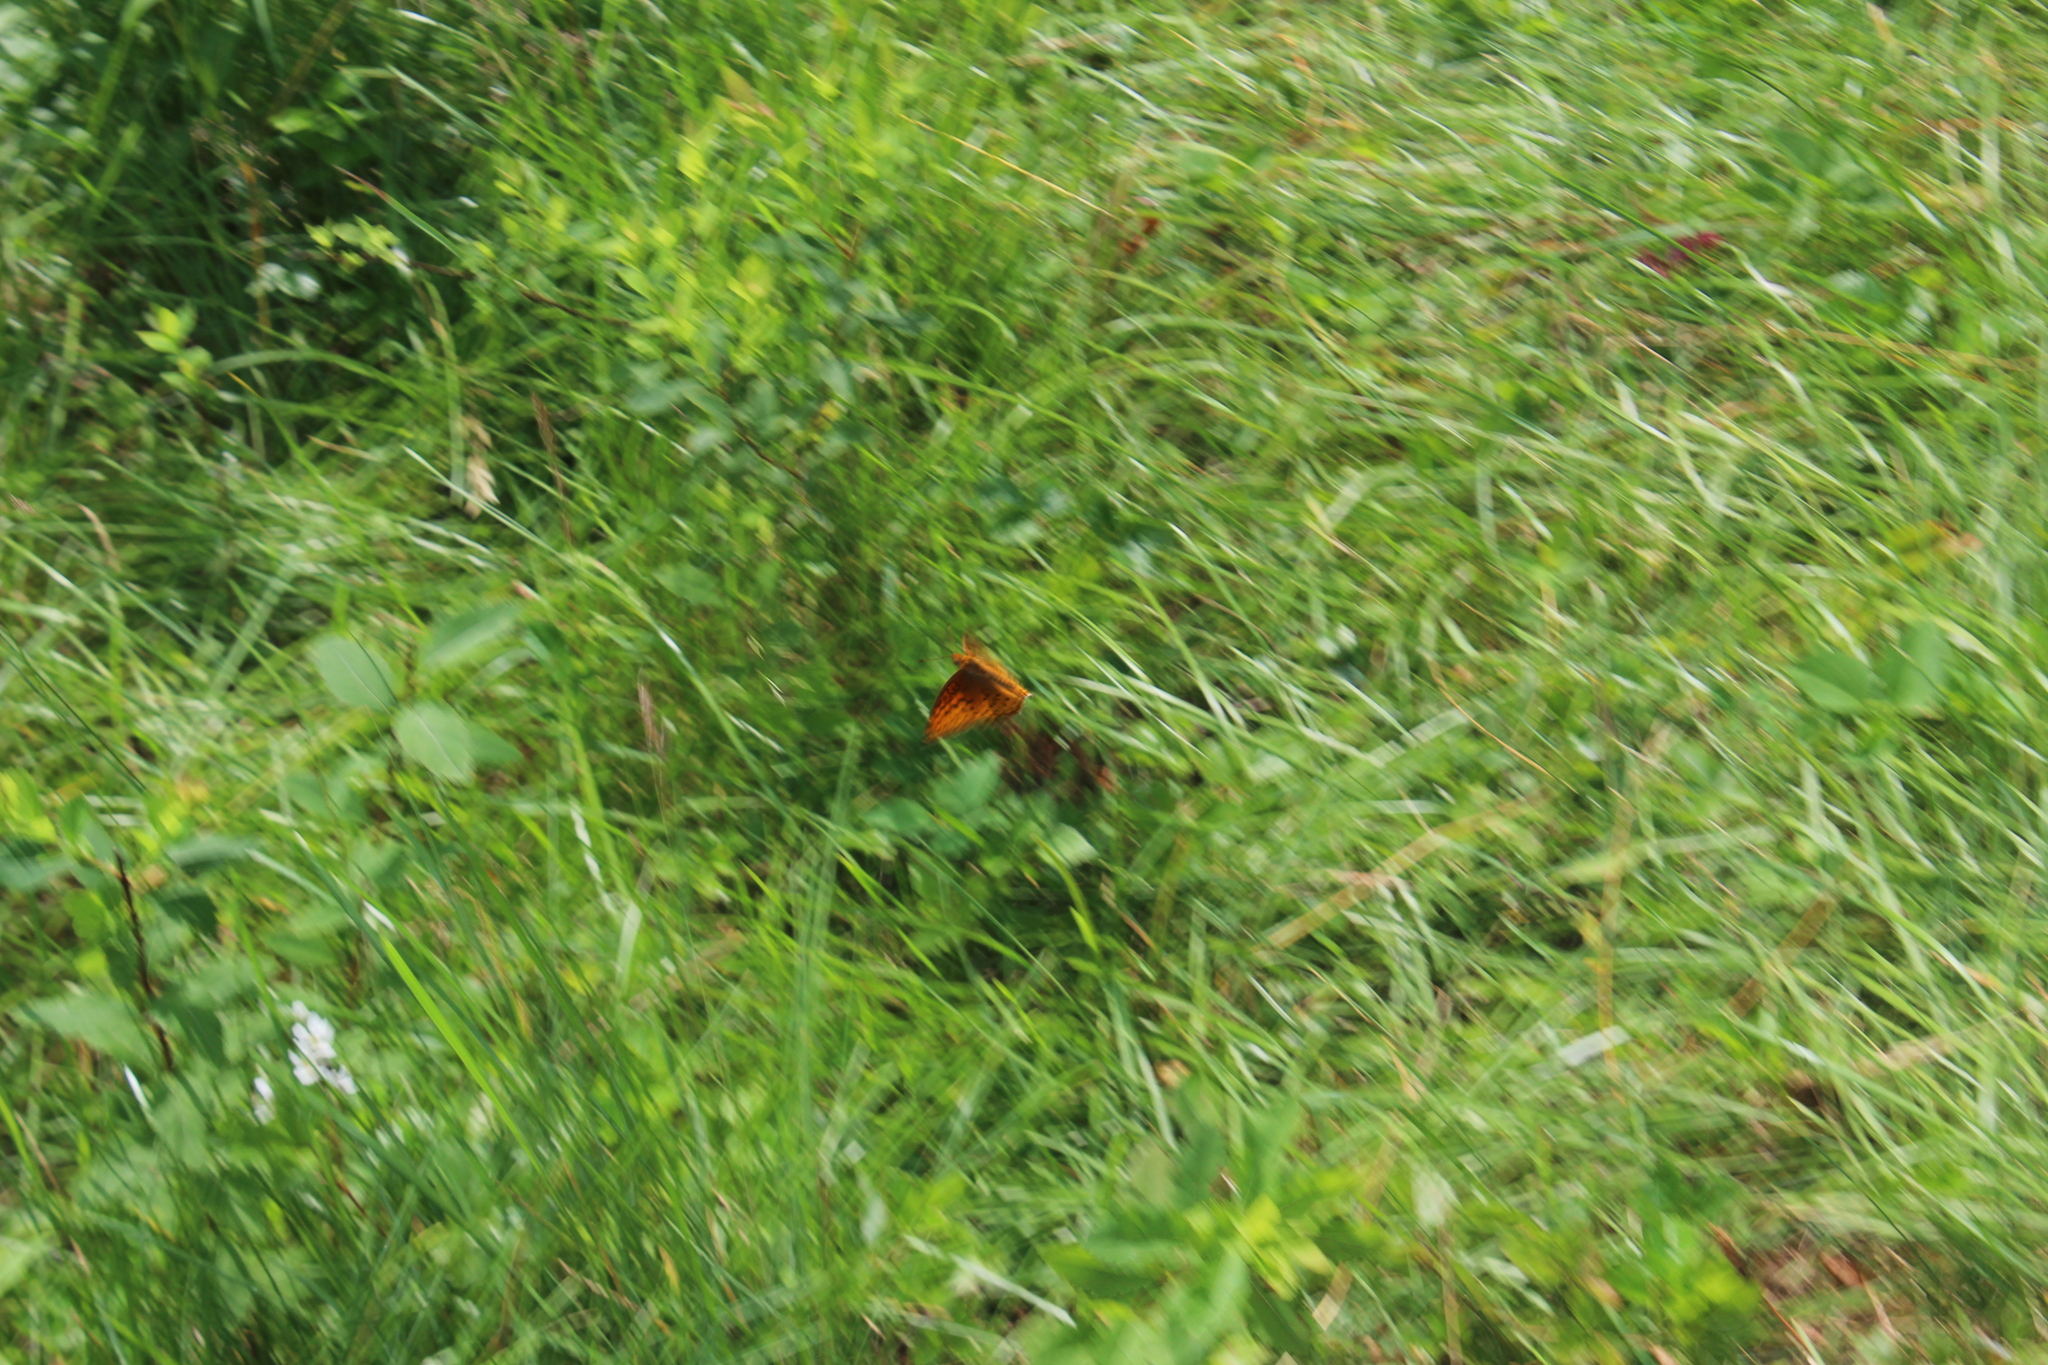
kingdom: Animalia
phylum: Arthropoda
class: Insecta
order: Lepidoptera
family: Nymphalidae
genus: Speyeria
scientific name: Speyeria aphrodite
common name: Aphrodite friitllary
